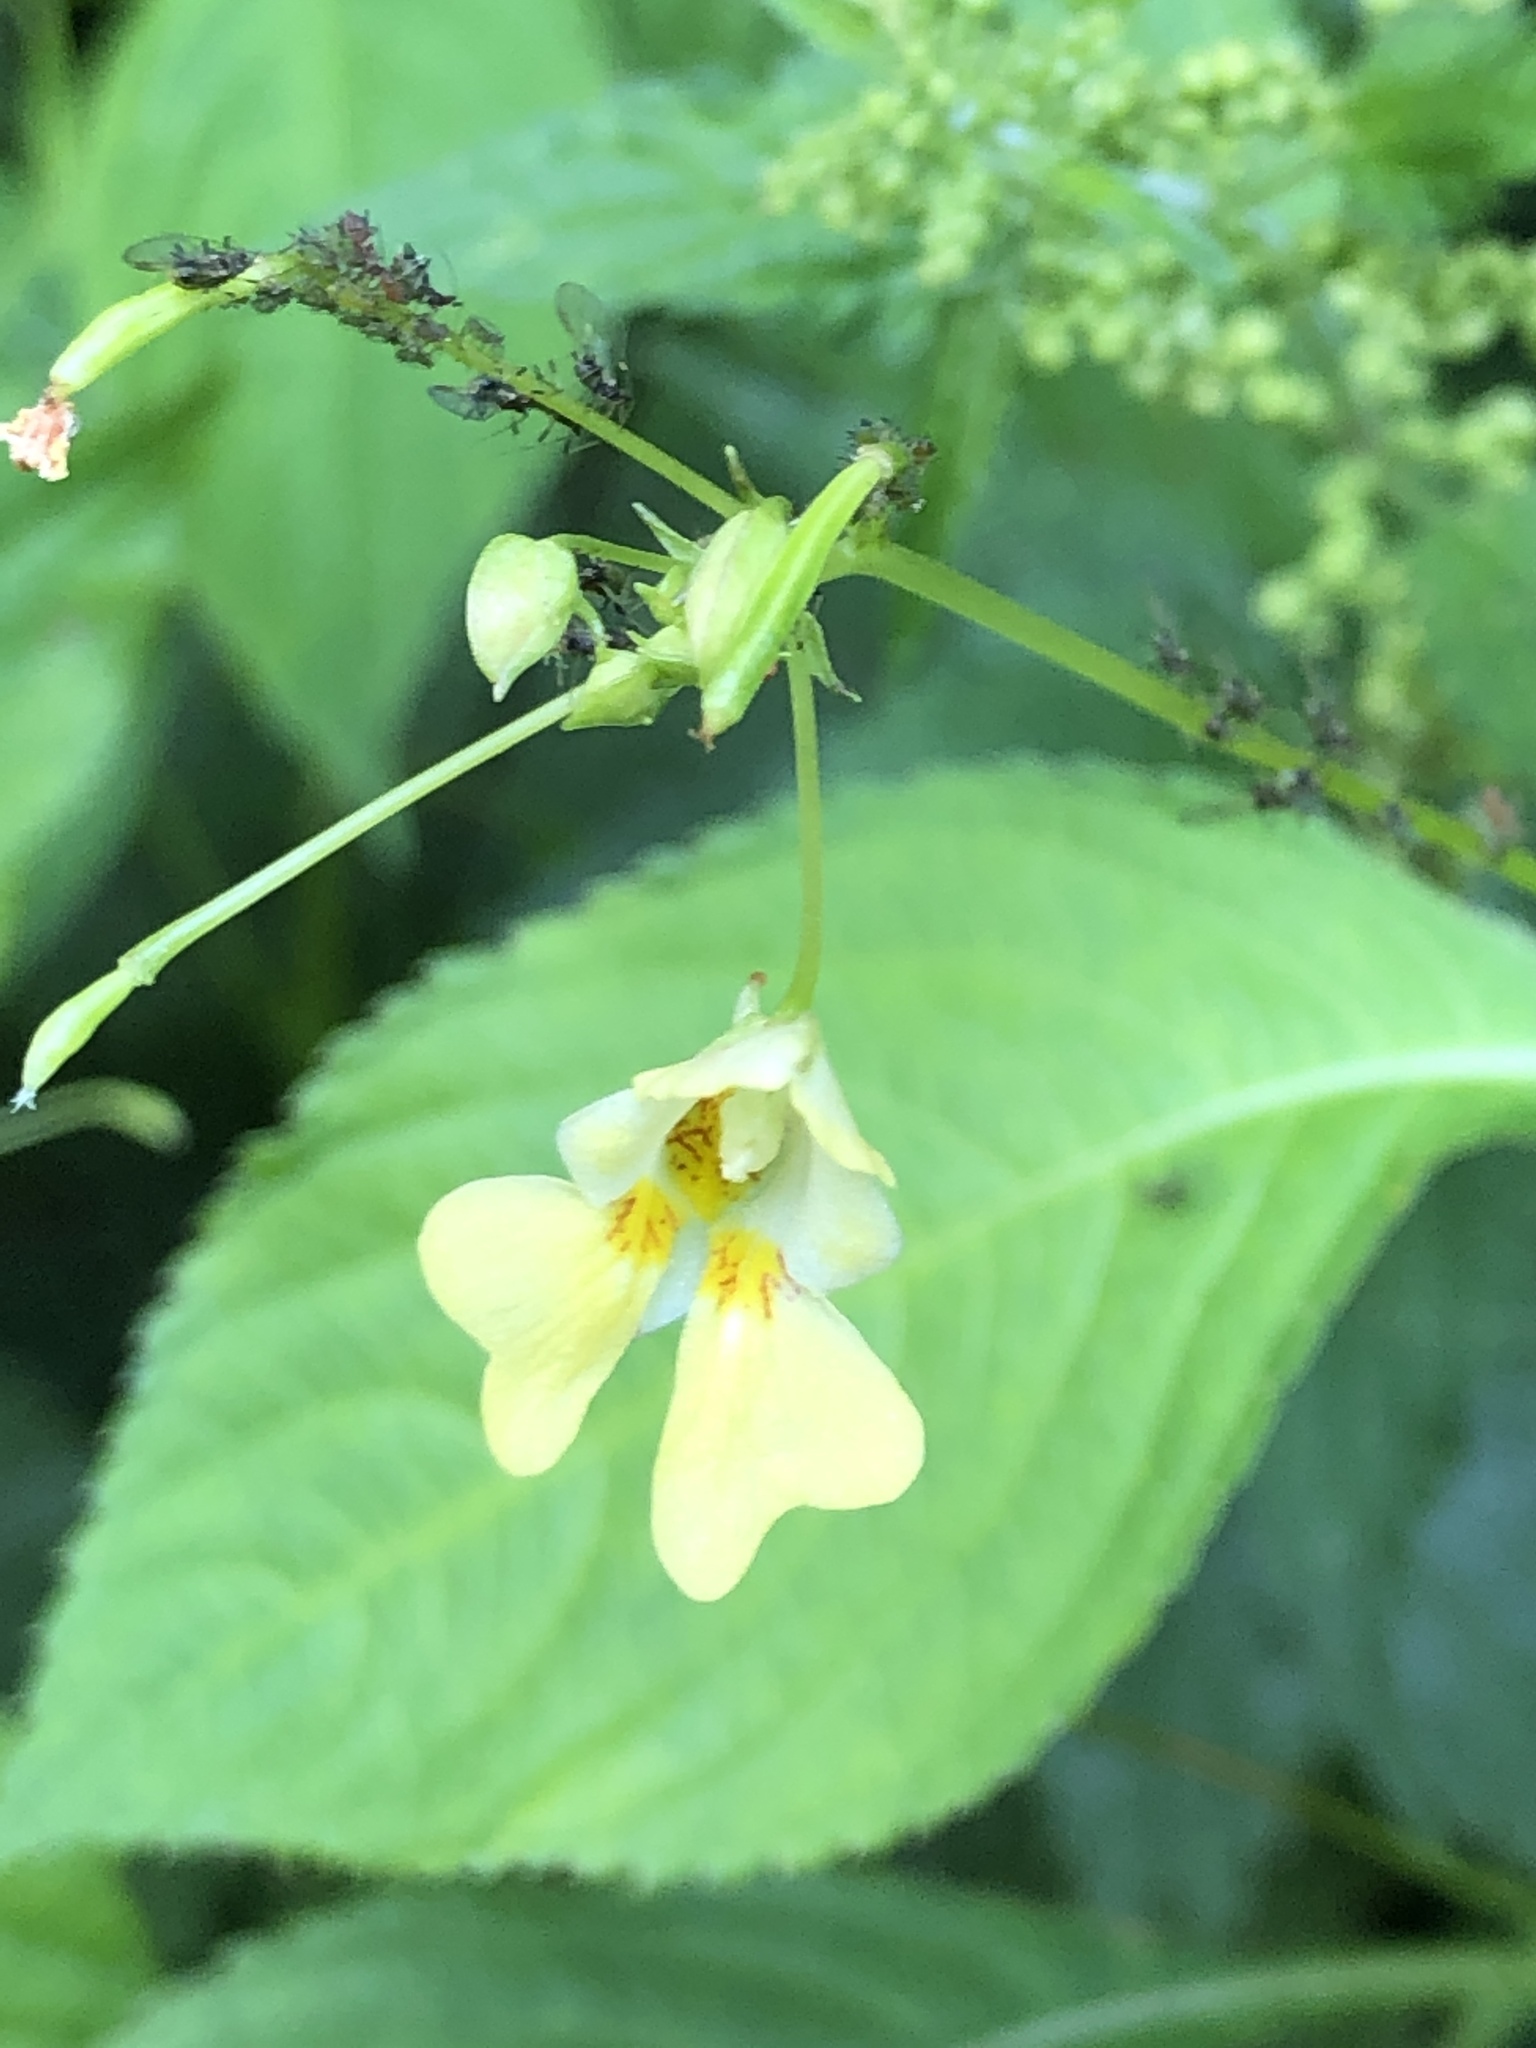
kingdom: Plantae
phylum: Tracheophyta
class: Magnoliopsida
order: Ericales
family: Balsaminaceae
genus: Impatiens
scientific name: Impatiens parviflora
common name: Small balsam
